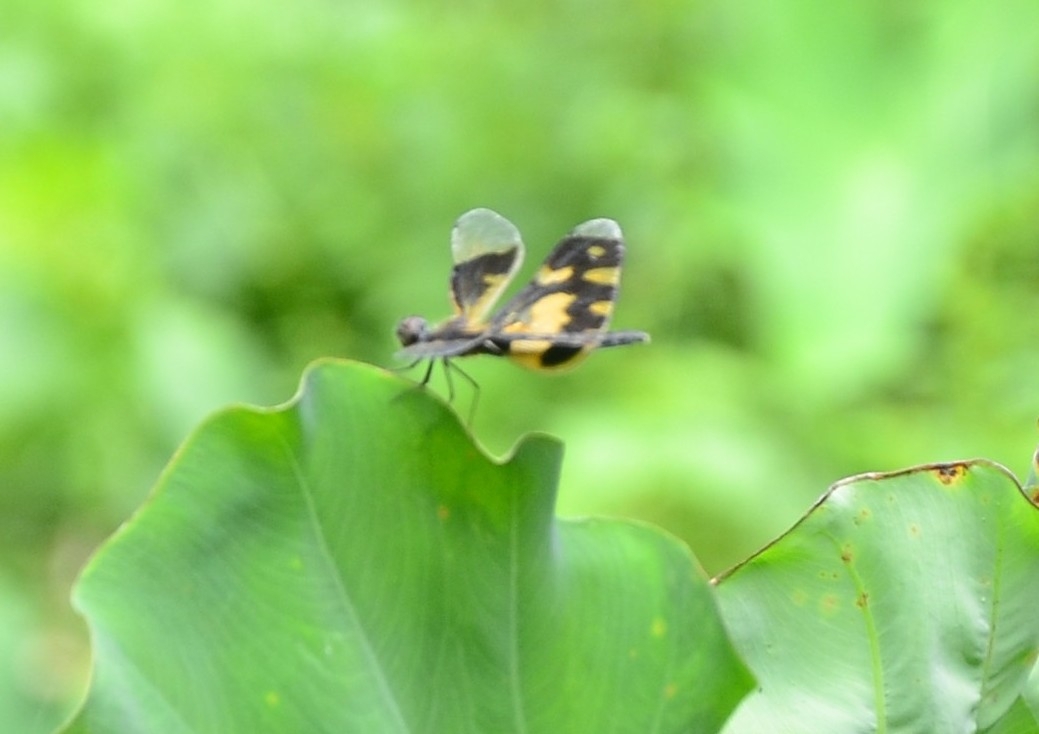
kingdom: Animalia
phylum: Arthropoda
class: Insecta
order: Odonata
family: Libellulidae
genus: Rhyothemis
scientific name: Rhyothemis variegata
